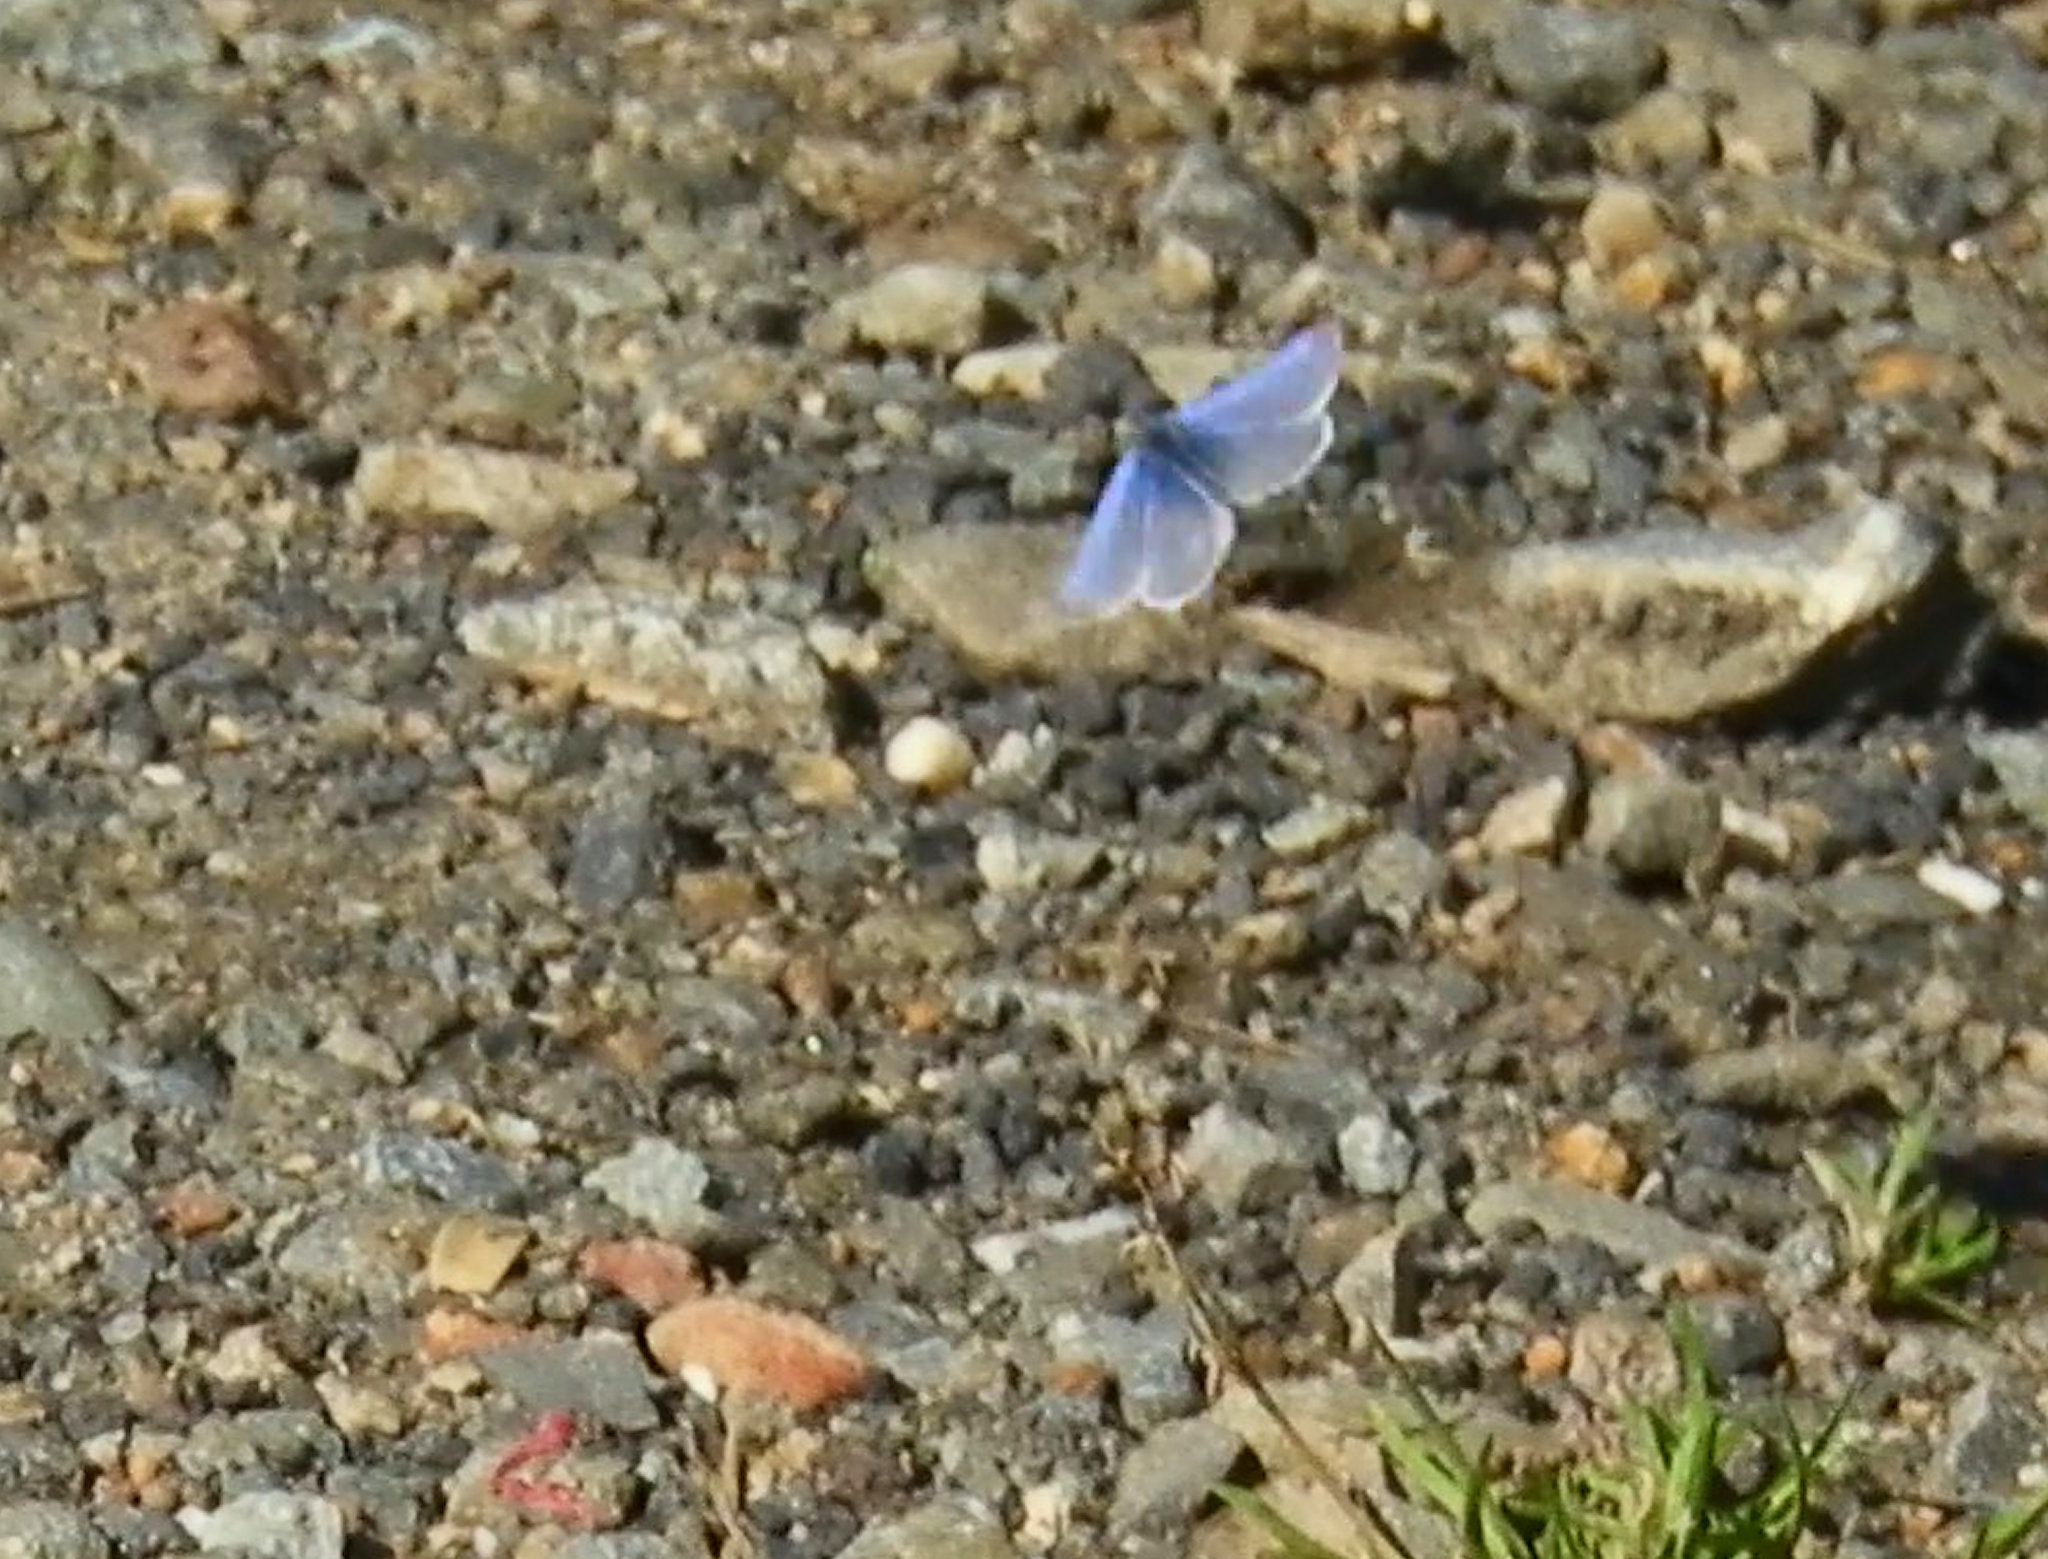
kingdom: Animalia
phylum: Arthropoda
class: Insecta
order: Lepidoptera
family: Lycaenidae
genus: Celastrina
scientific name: Celastrina ladon
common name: Spring azure
